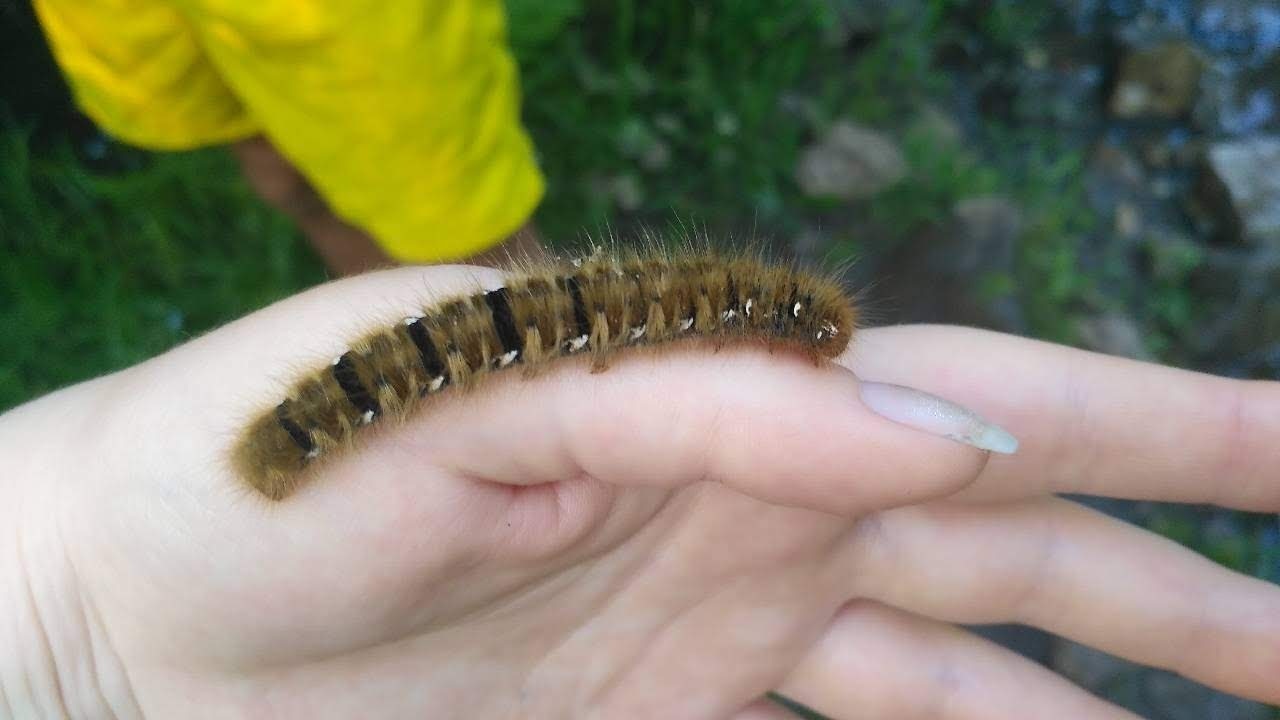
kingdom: Animalia
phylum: Arthropoda
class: Insecta
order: Lepidoptera
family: Lasiocampidae
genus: Lasiocampa
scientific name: Lasiocampa quercus
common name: Oak eggar
